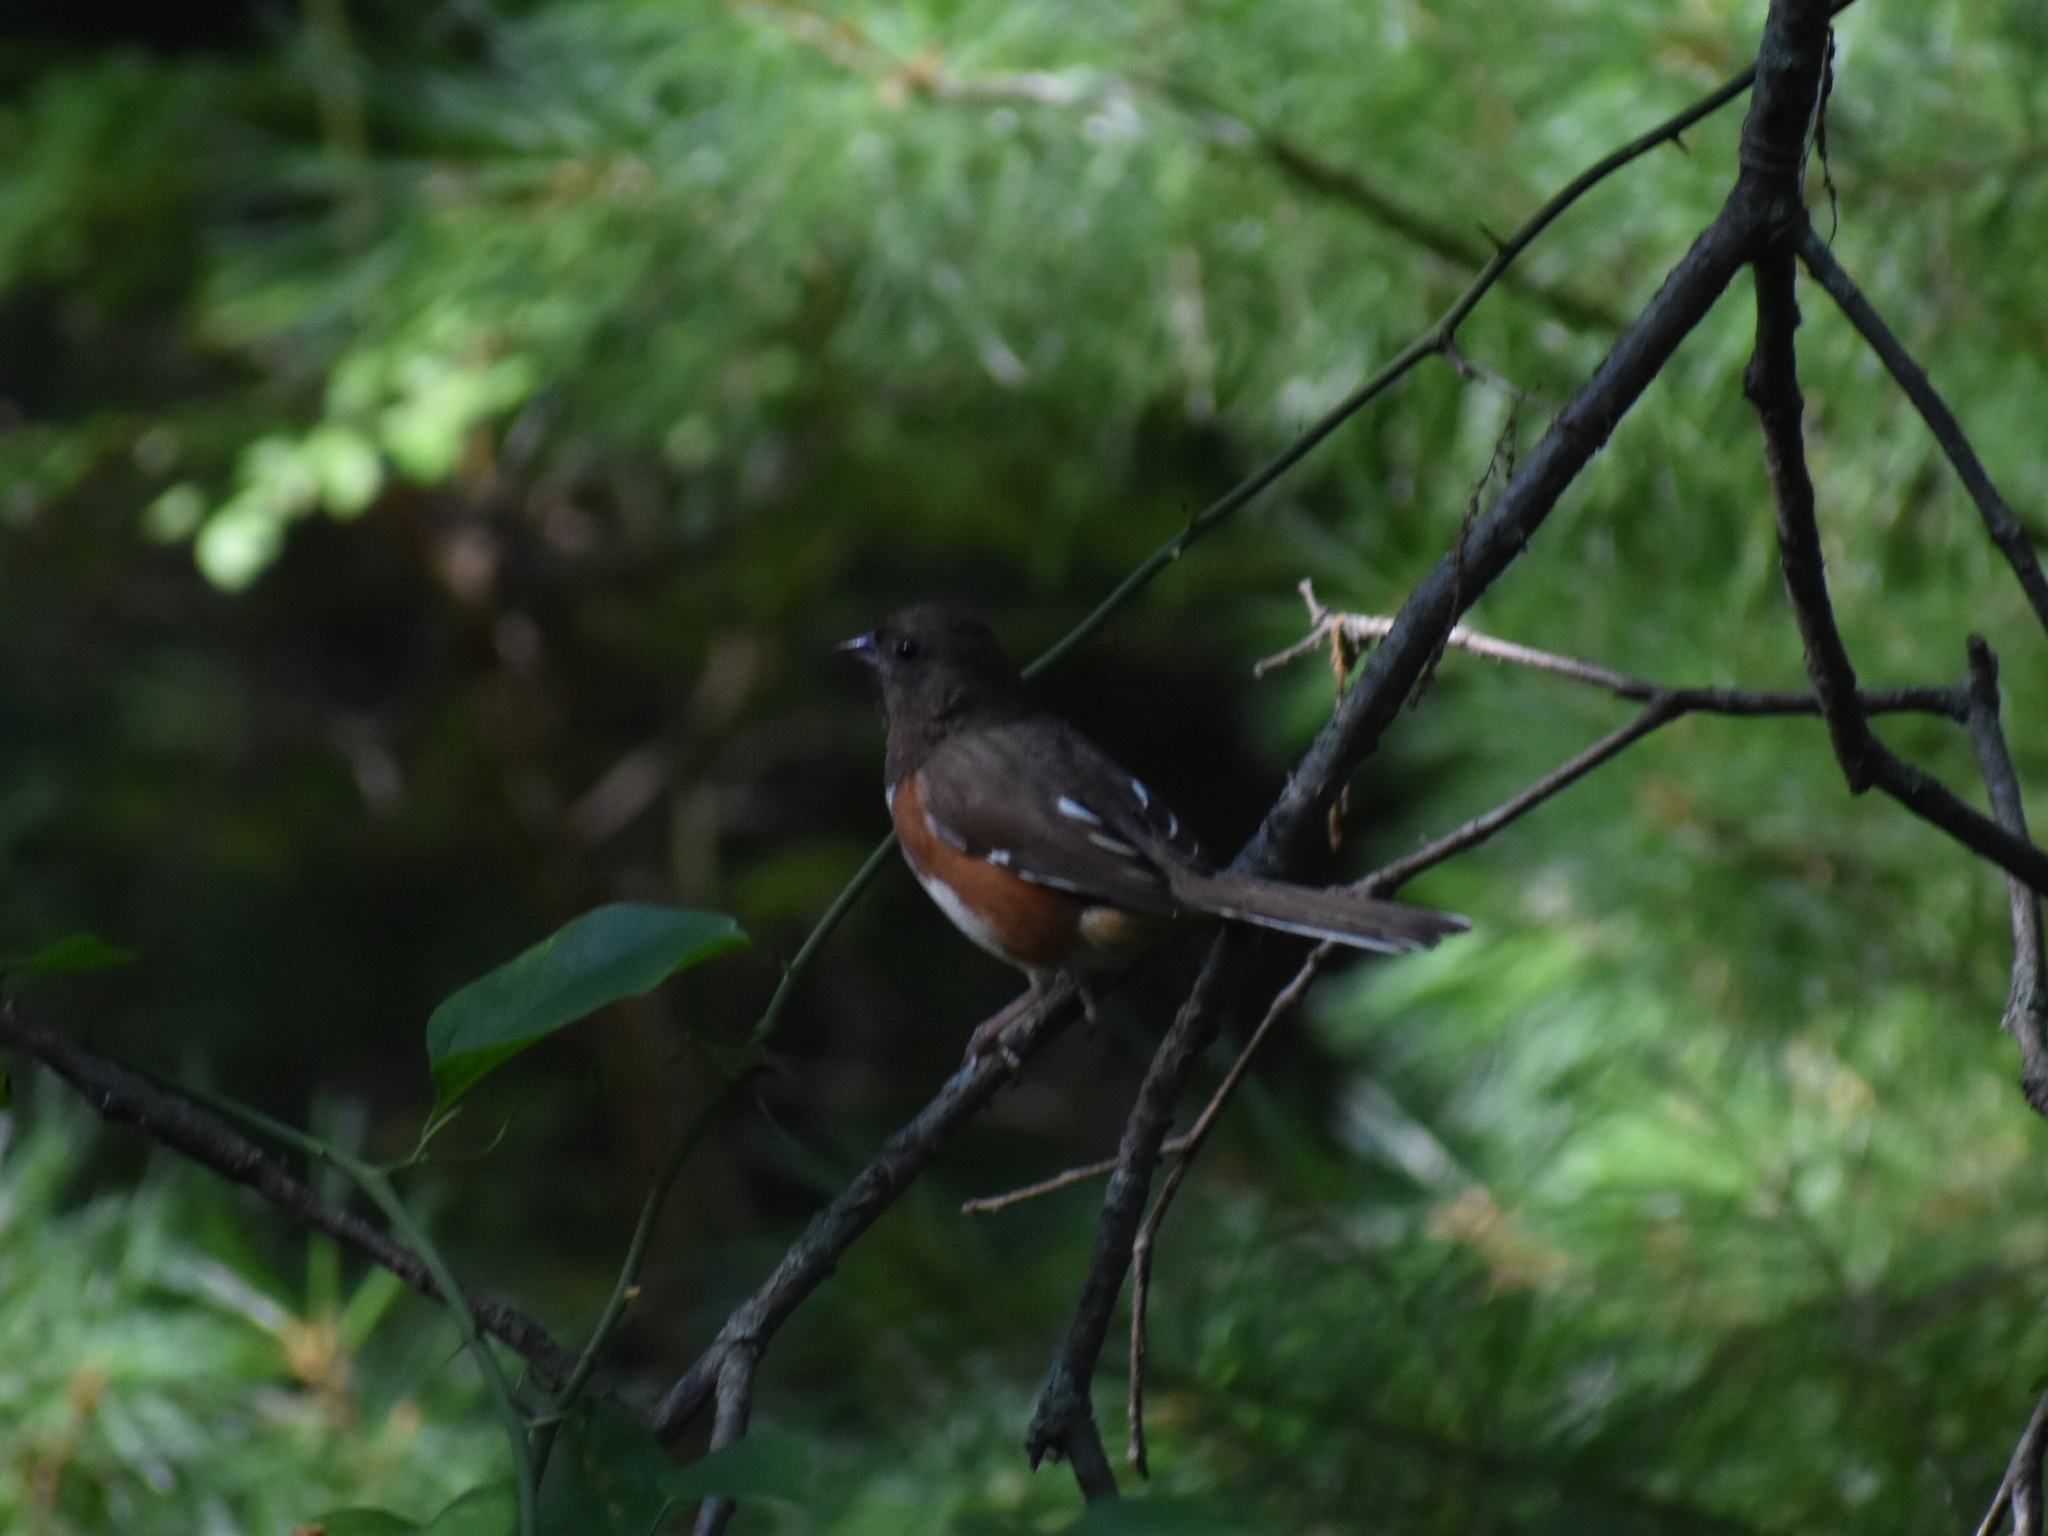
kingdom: Animalia
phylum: Chordata
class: Aves
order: Passeriformes
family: Passerellidae
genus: Pipilo
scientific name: Pipilo erythrophthalmus
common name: Eastern towhee
